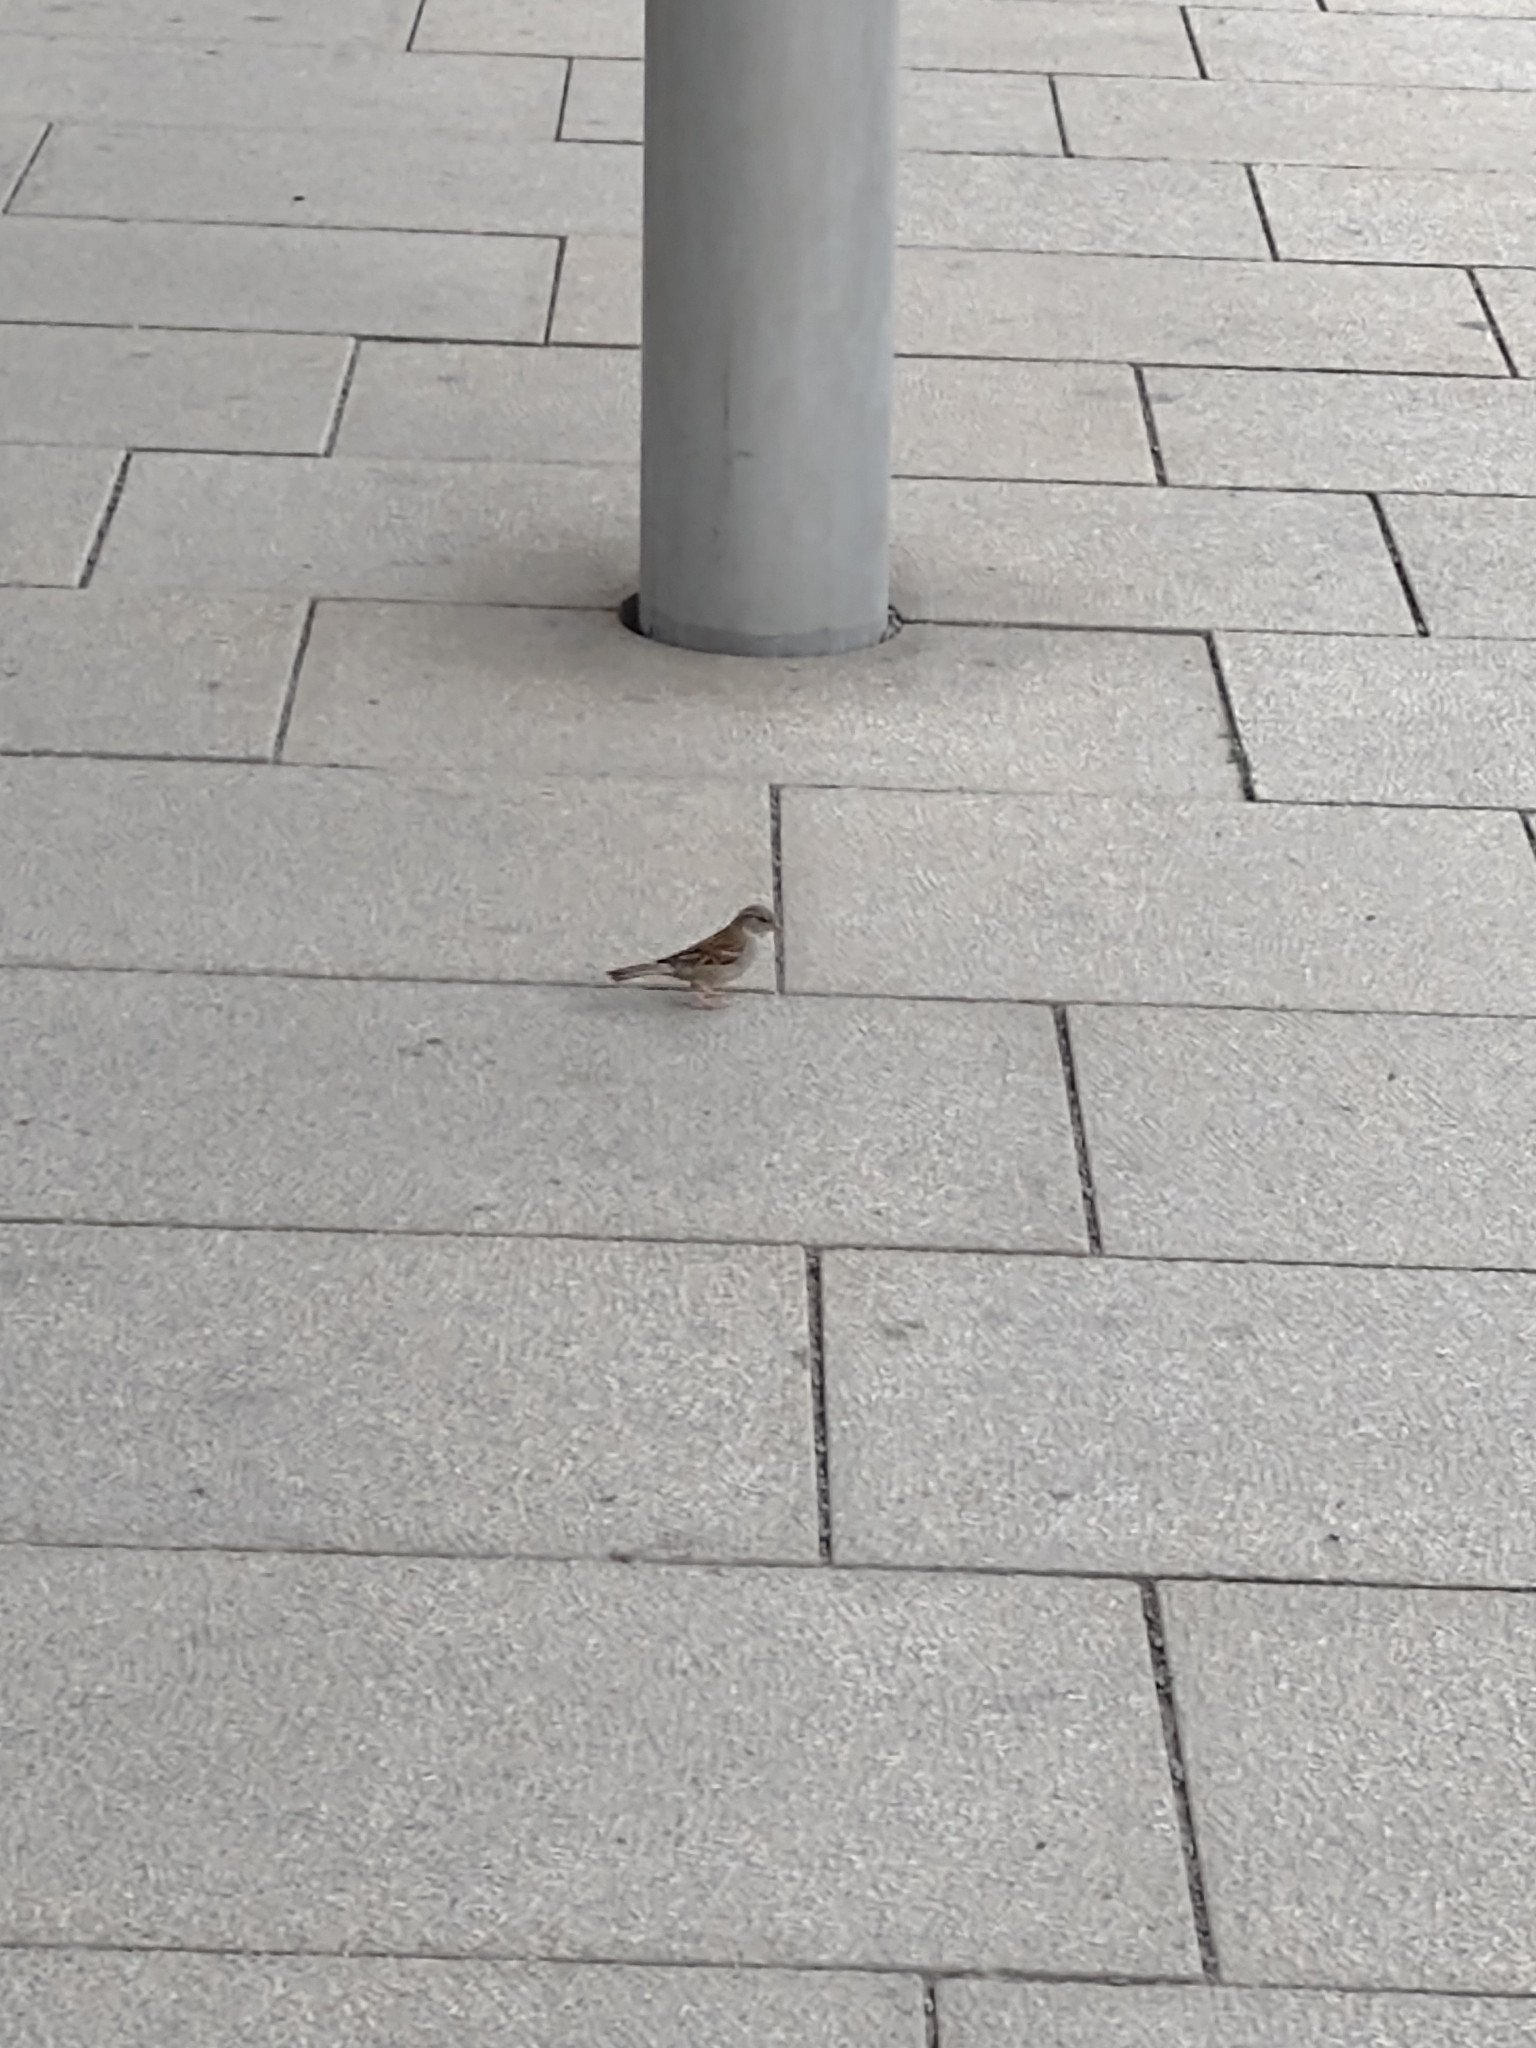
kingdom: Animalia
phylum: Chordata
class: Aves
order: Passeriformes
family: Passeridae
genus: Passer
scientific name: Passer domesticus
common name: House sparrow
